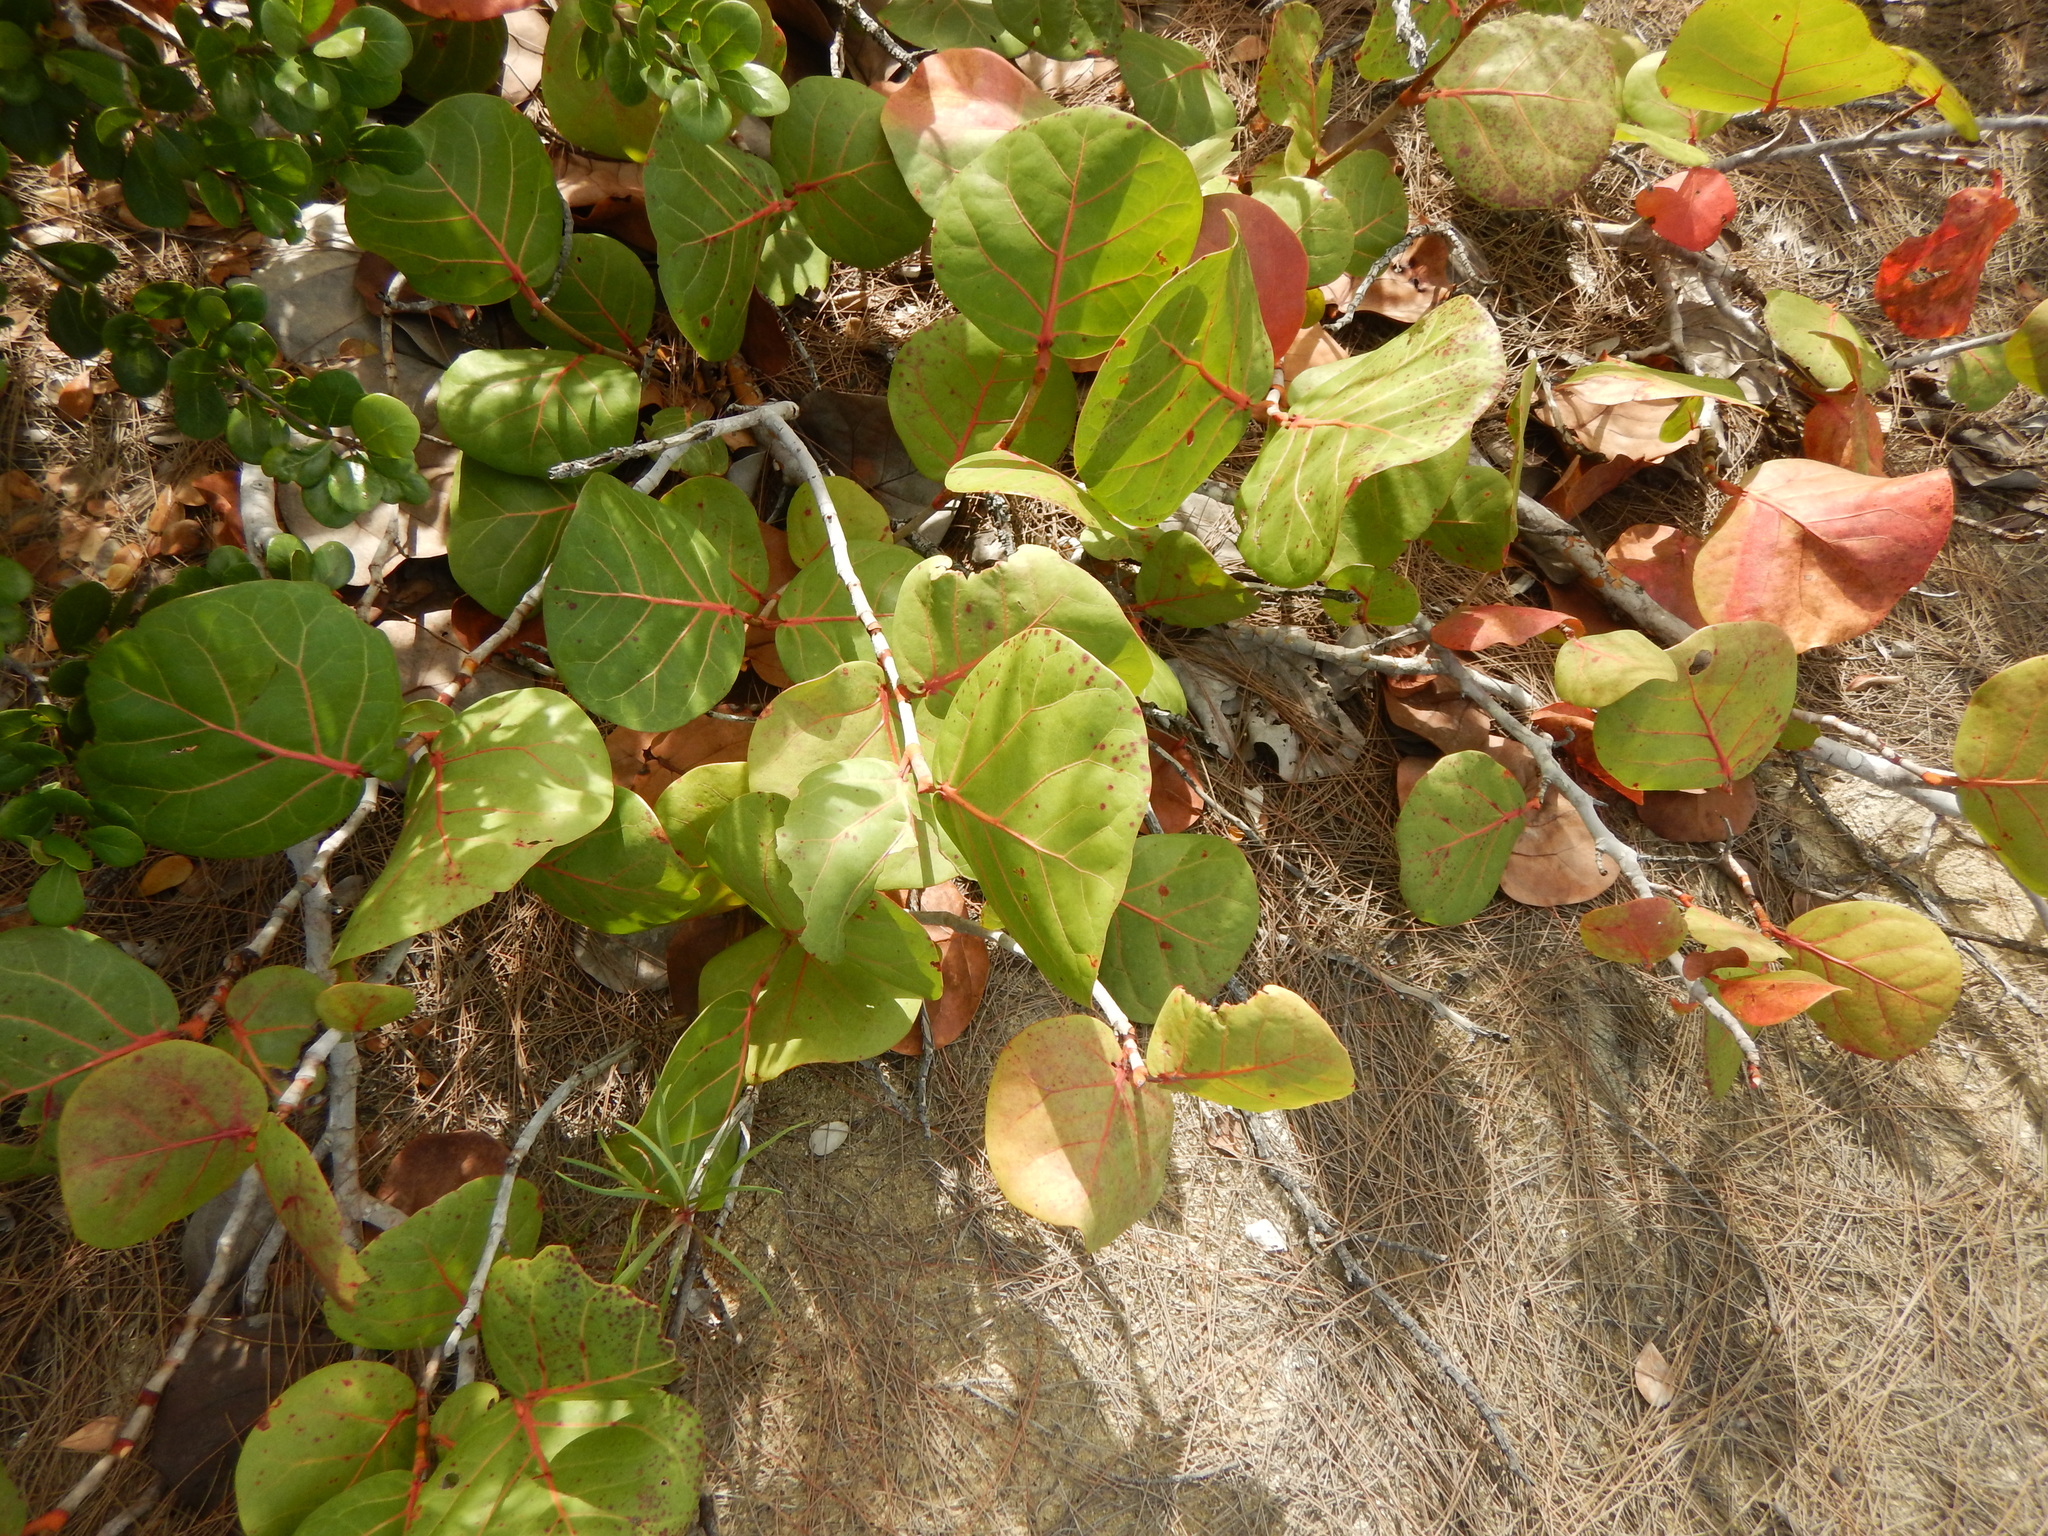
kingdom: Plantae
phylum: Tracheophyta
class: Magnoliopsida
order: Caryophyllales
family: Polygonaceae
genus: Coccoloba
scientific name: Coccoloba uvifera
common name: Seagrape
